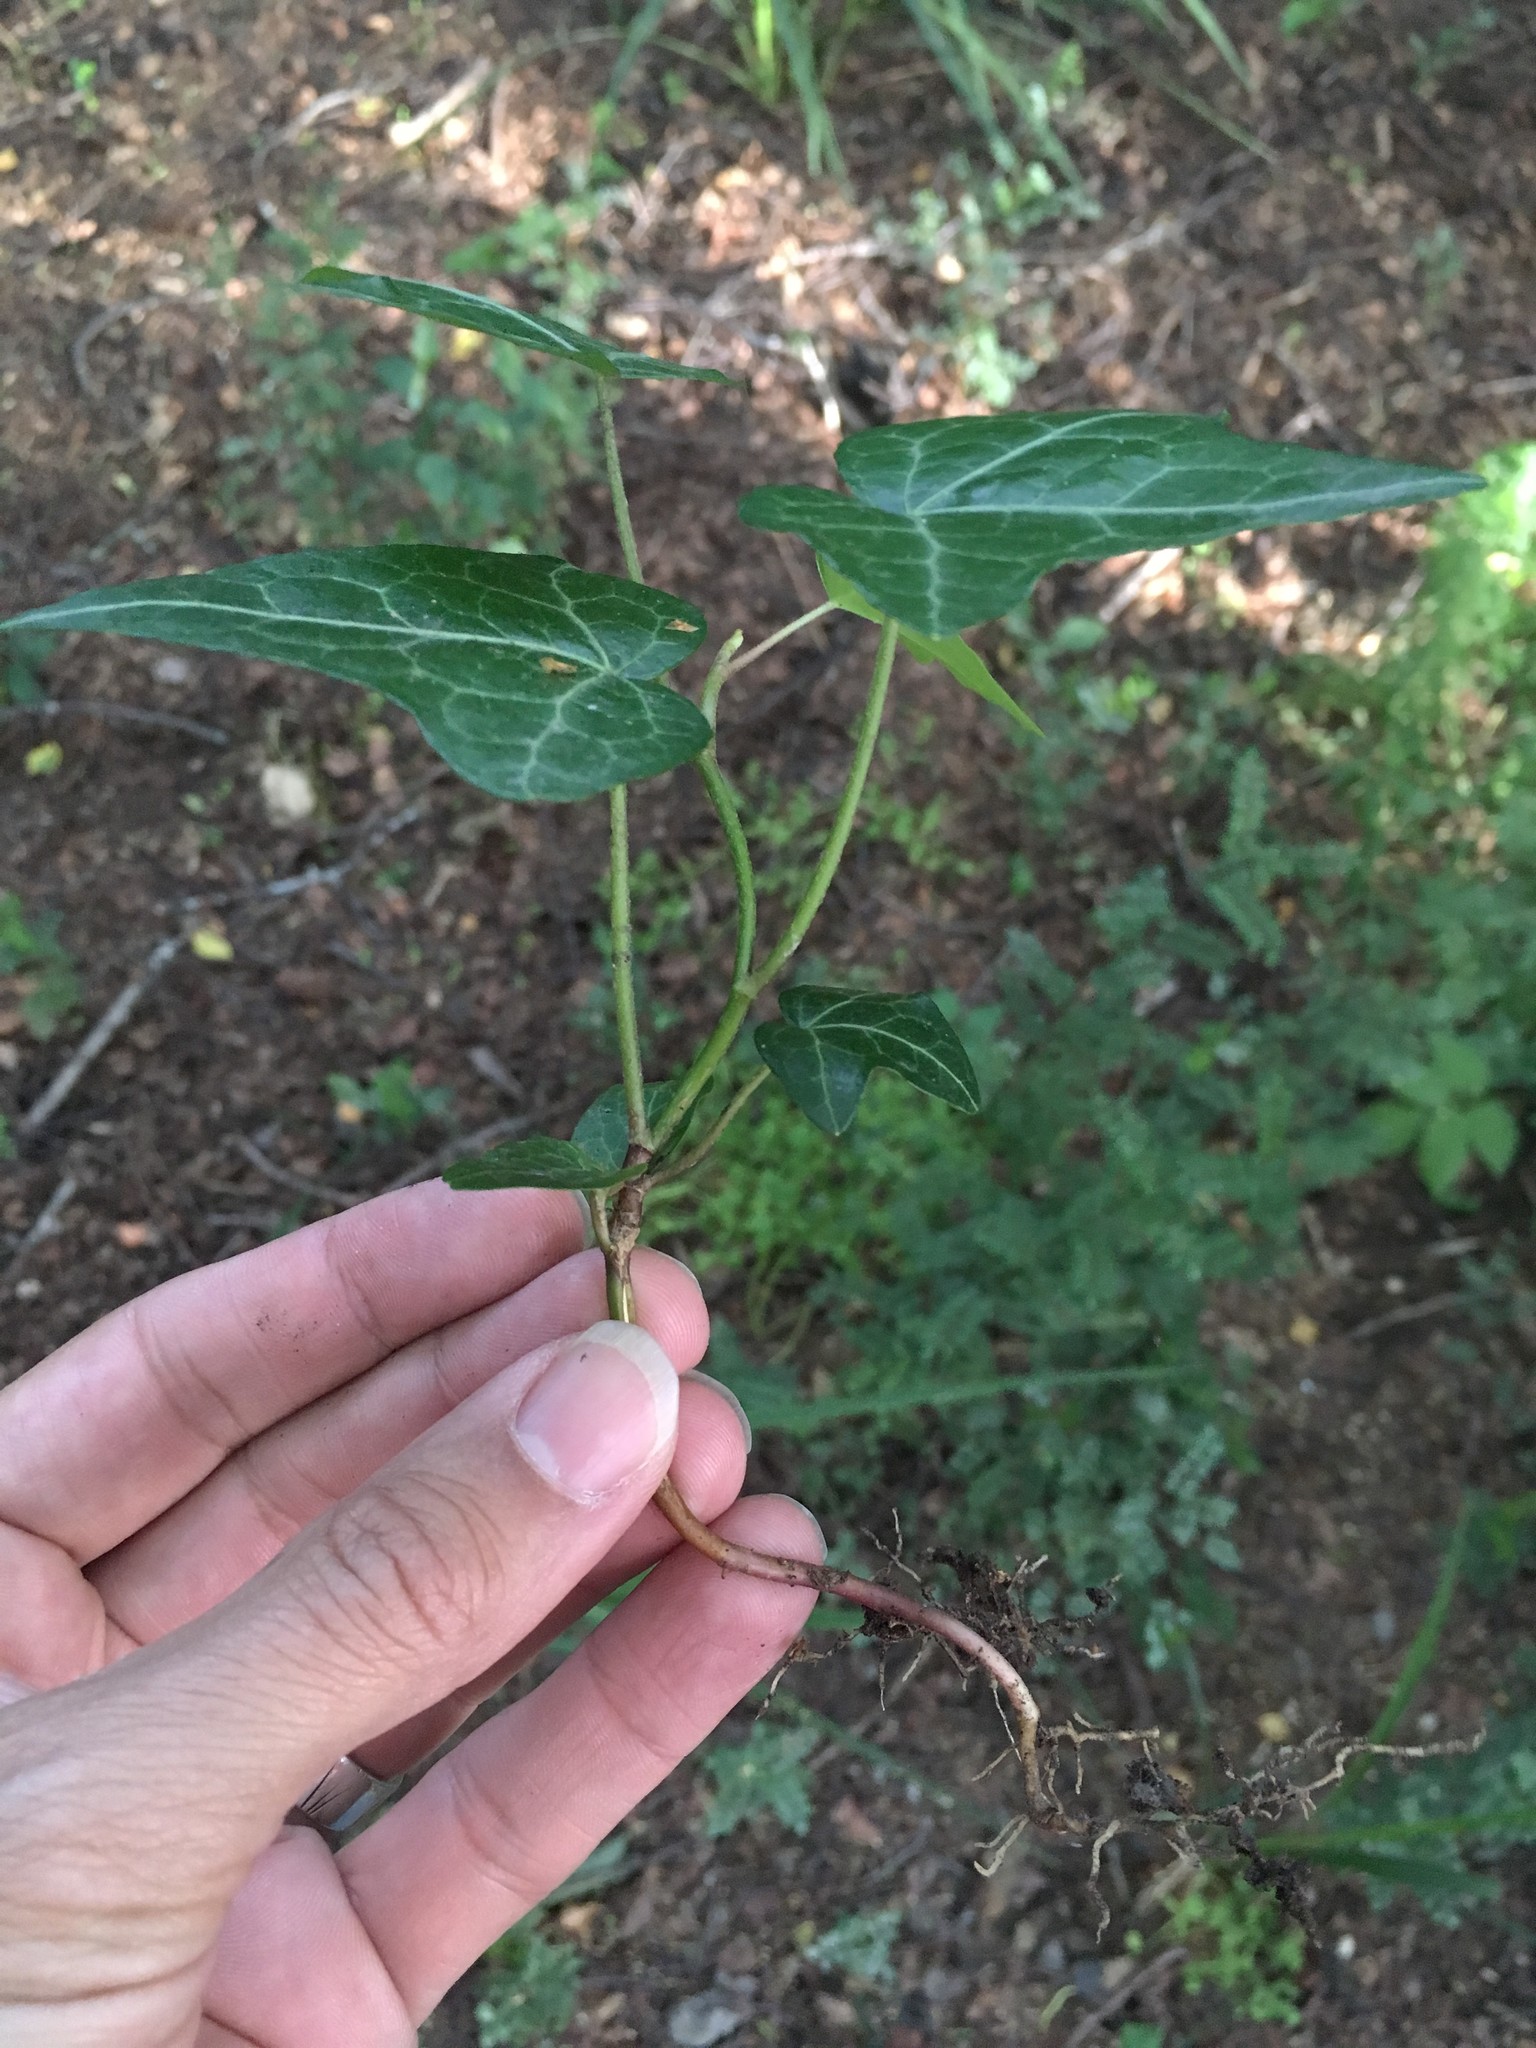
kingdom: Plantae
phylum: Tracheophyta
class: Magnoliopsida
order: Apiales
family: Araliaceae
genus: Hedera
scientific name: Hedera helix
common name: Ivy
